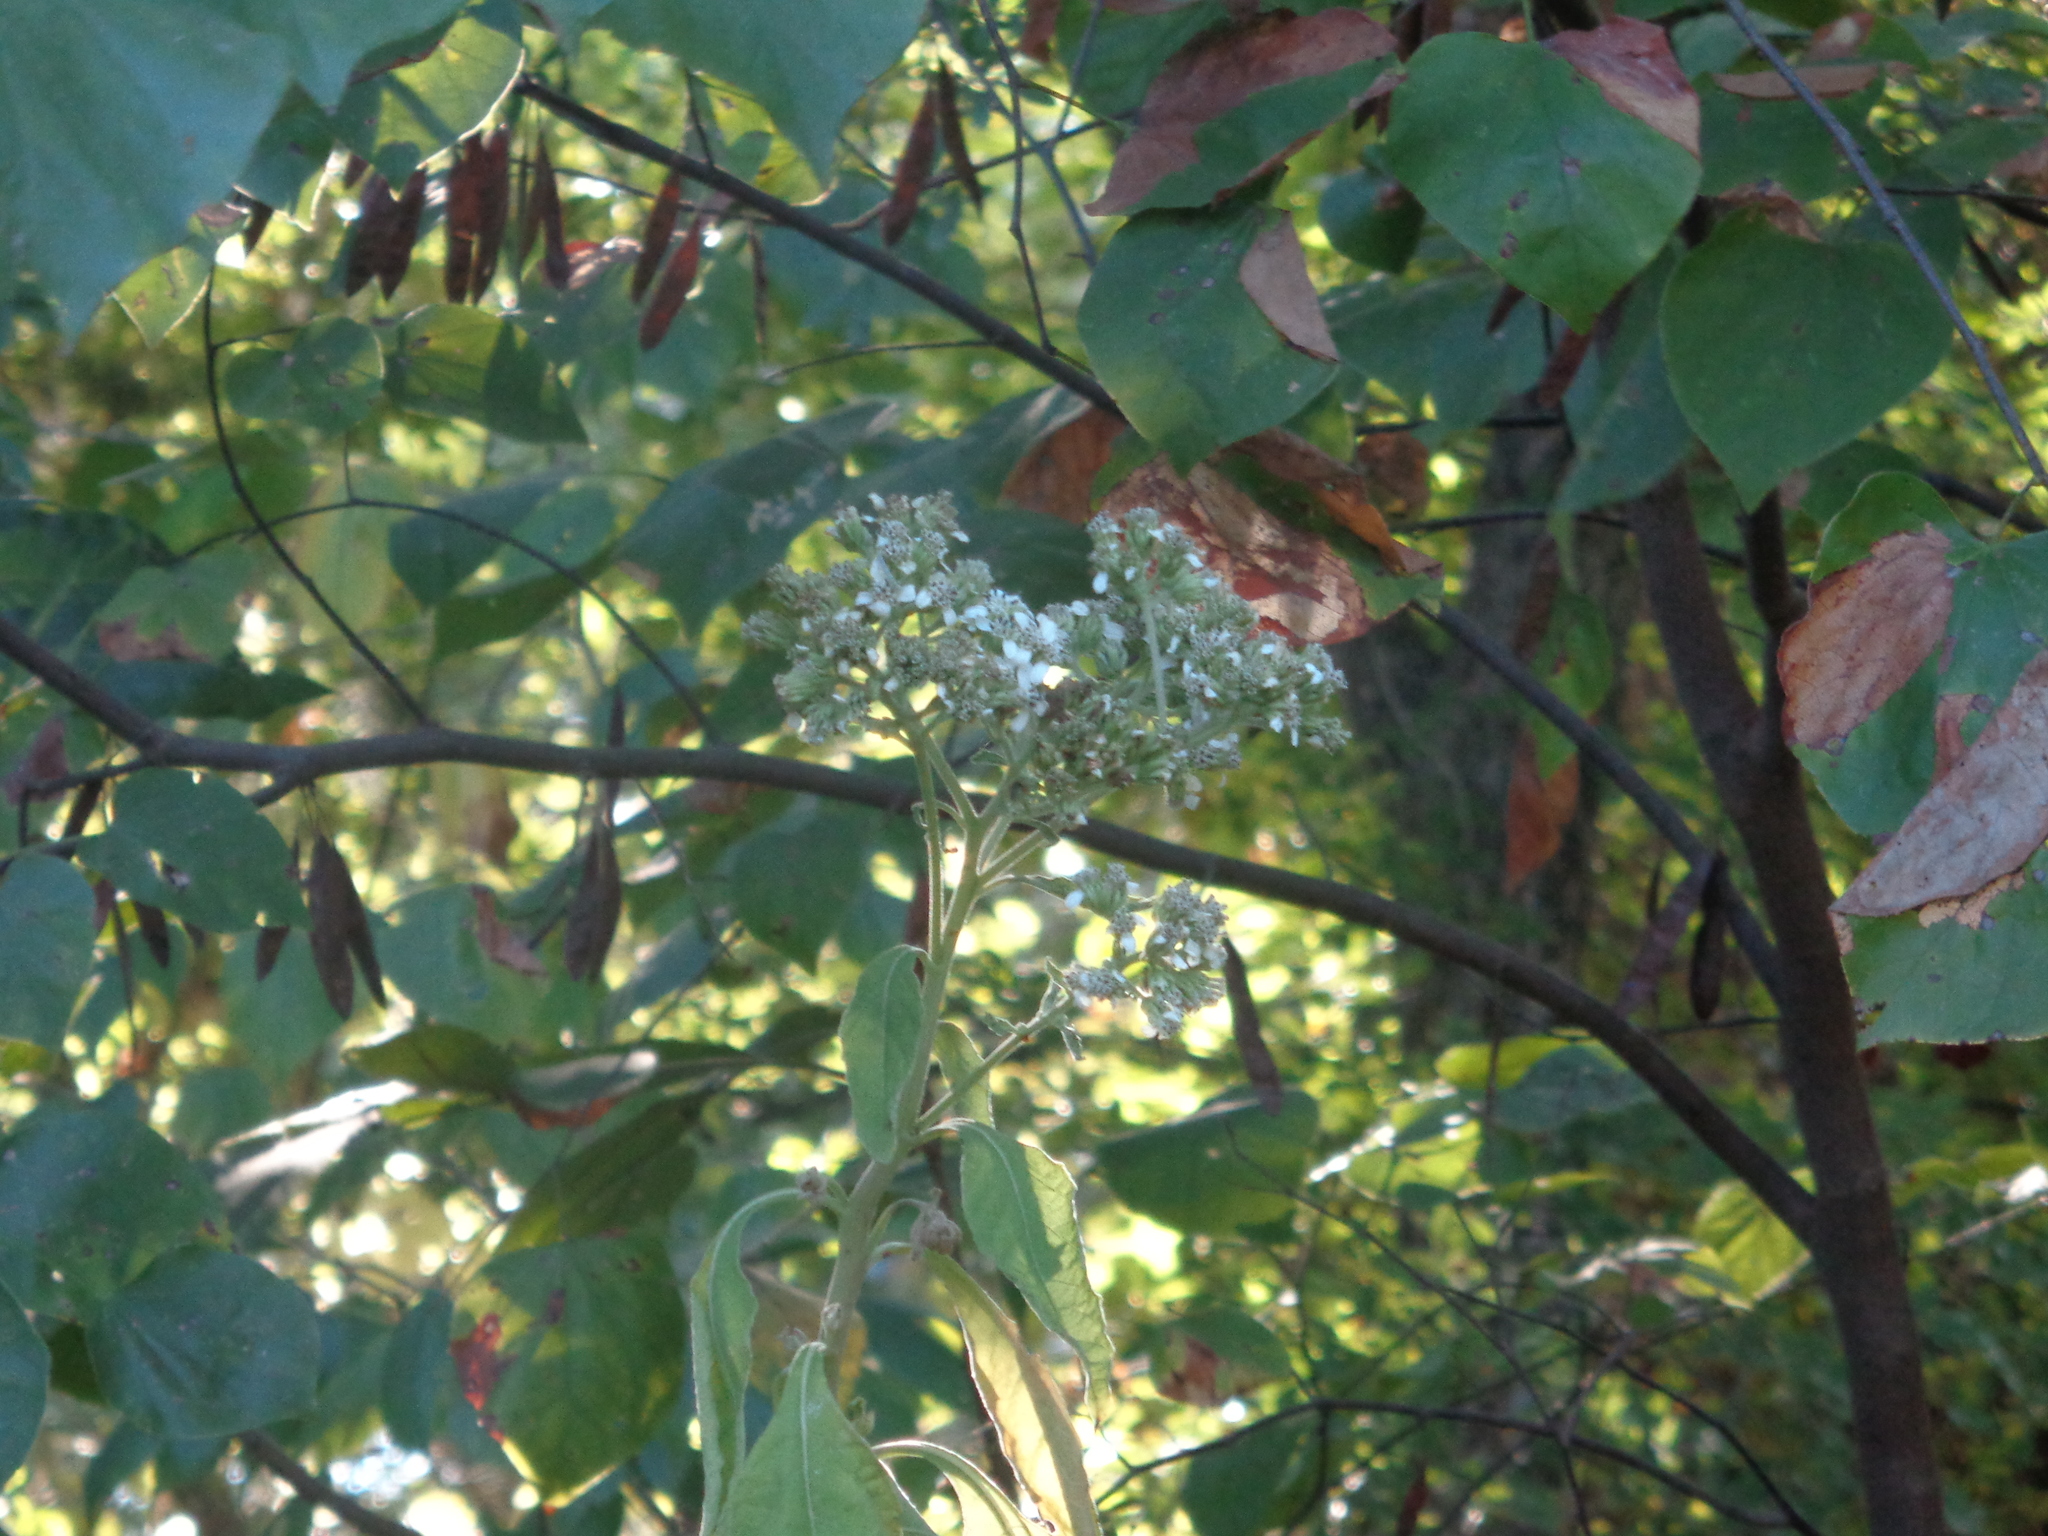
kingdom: Plantae
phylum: Tracheophyta
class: Magnoliopsida
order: Asterales
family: Asteraceae
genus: Verbesina
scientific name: Verbesina virginica
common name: Frostweed
